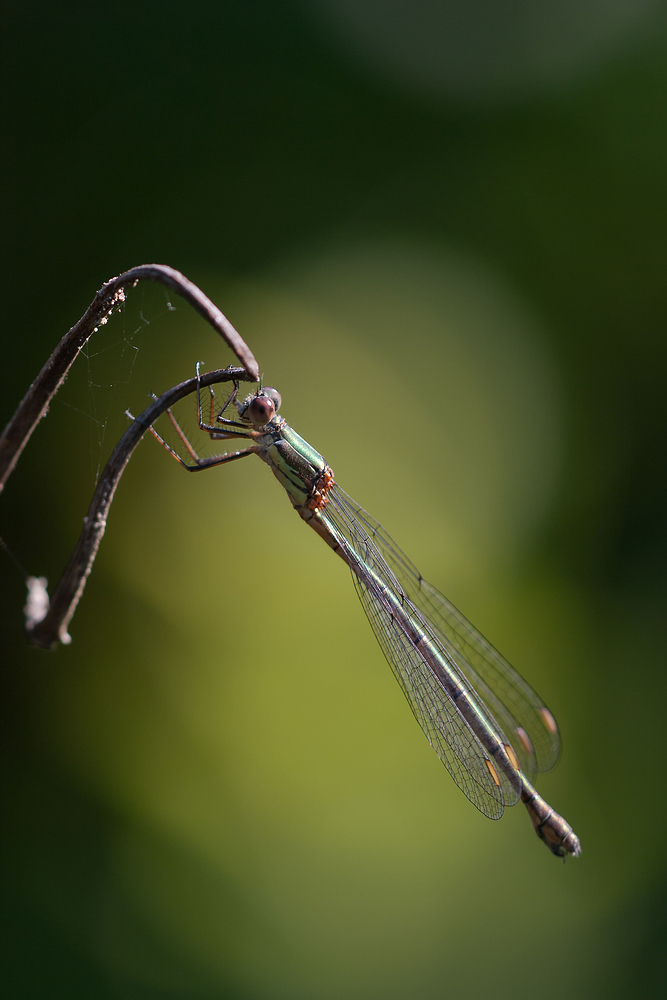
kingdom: Animalia
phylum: Arthropoda
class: Insecta
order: Odonata
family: Lestidae
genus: Chalcolestes
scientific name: Chalcolestes viridis
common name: Green emerald damselfly
